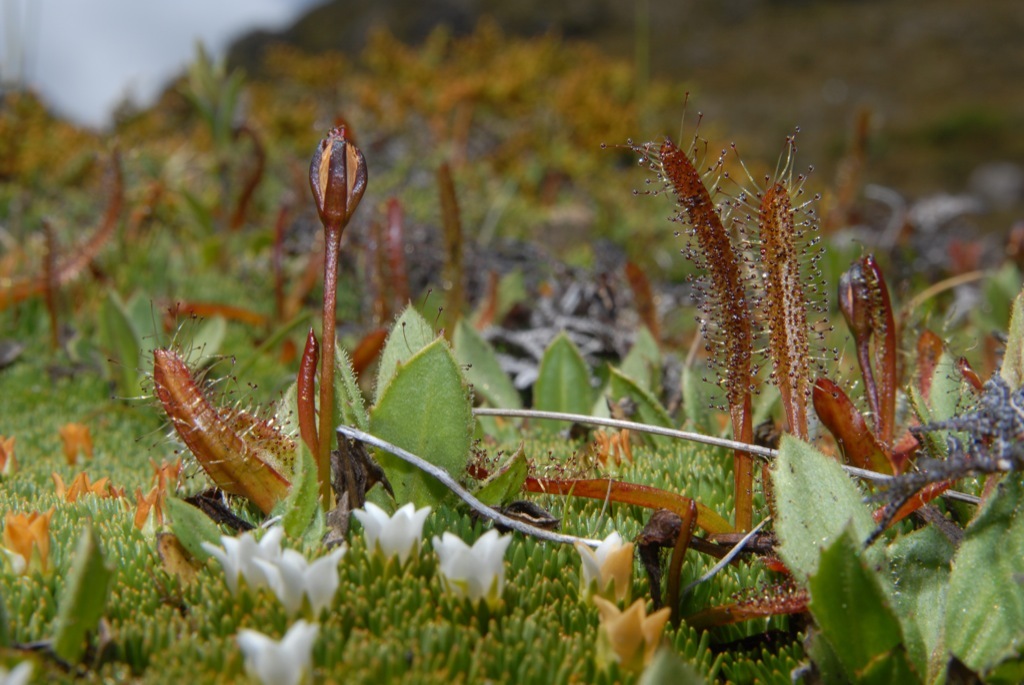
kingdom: Plantae
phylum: Tracheophyta
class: Magnoliopsida
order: Caryophyllales
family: Droseraceae
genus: Drosera
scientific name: Drosera arcturi
